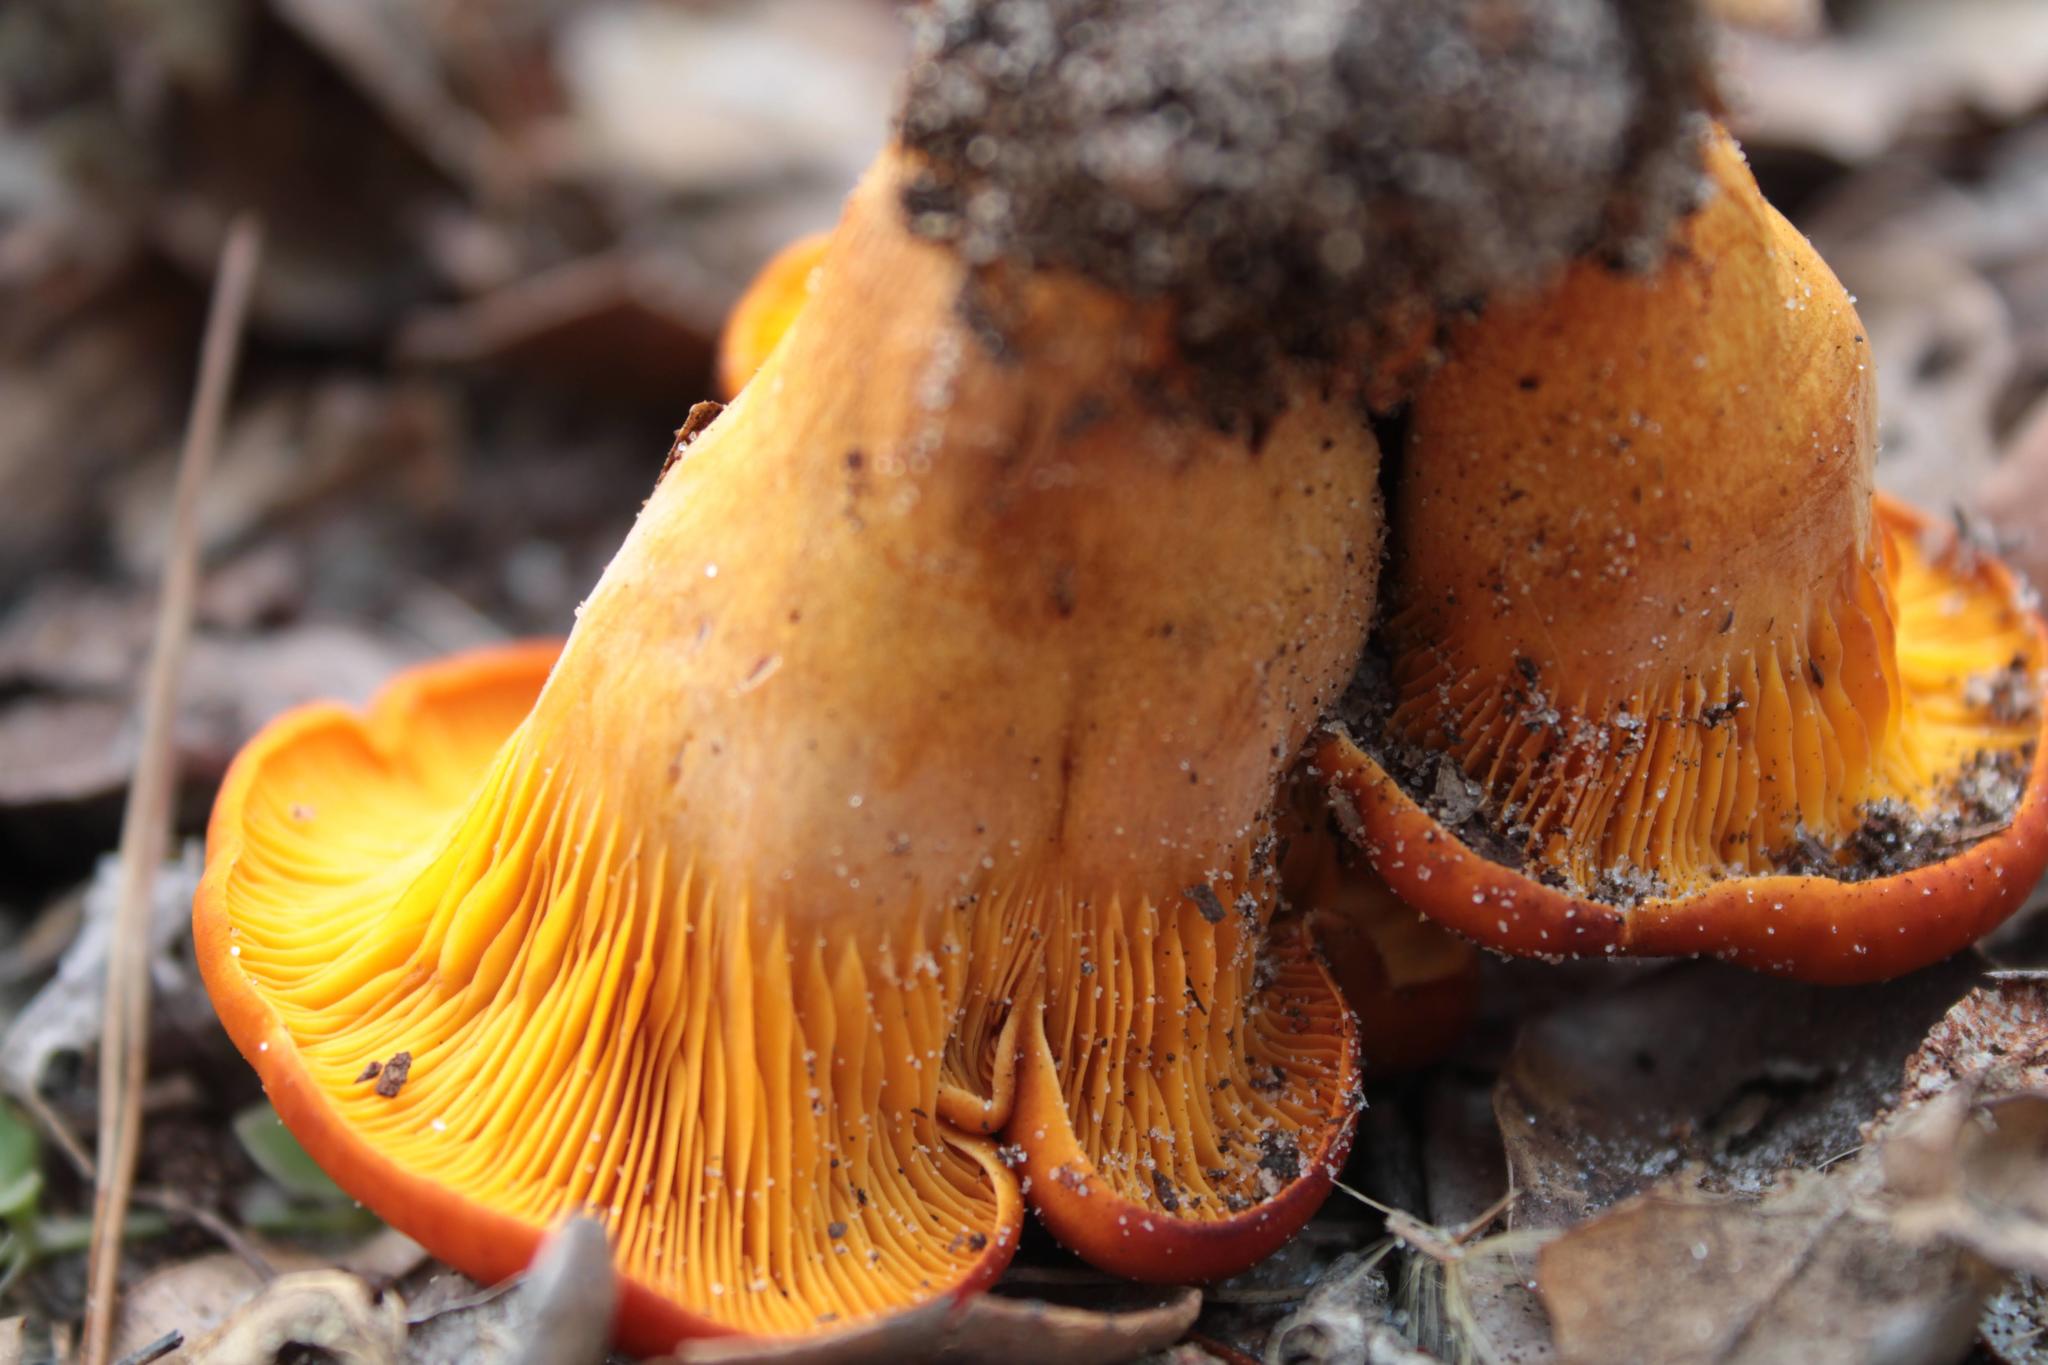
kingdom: Fungi
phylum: Basidiomycota
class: Agaricomycetes
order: Agaricales
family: Omphalotaceae
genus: Omphalotus
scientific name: Omphalotus subilludens
